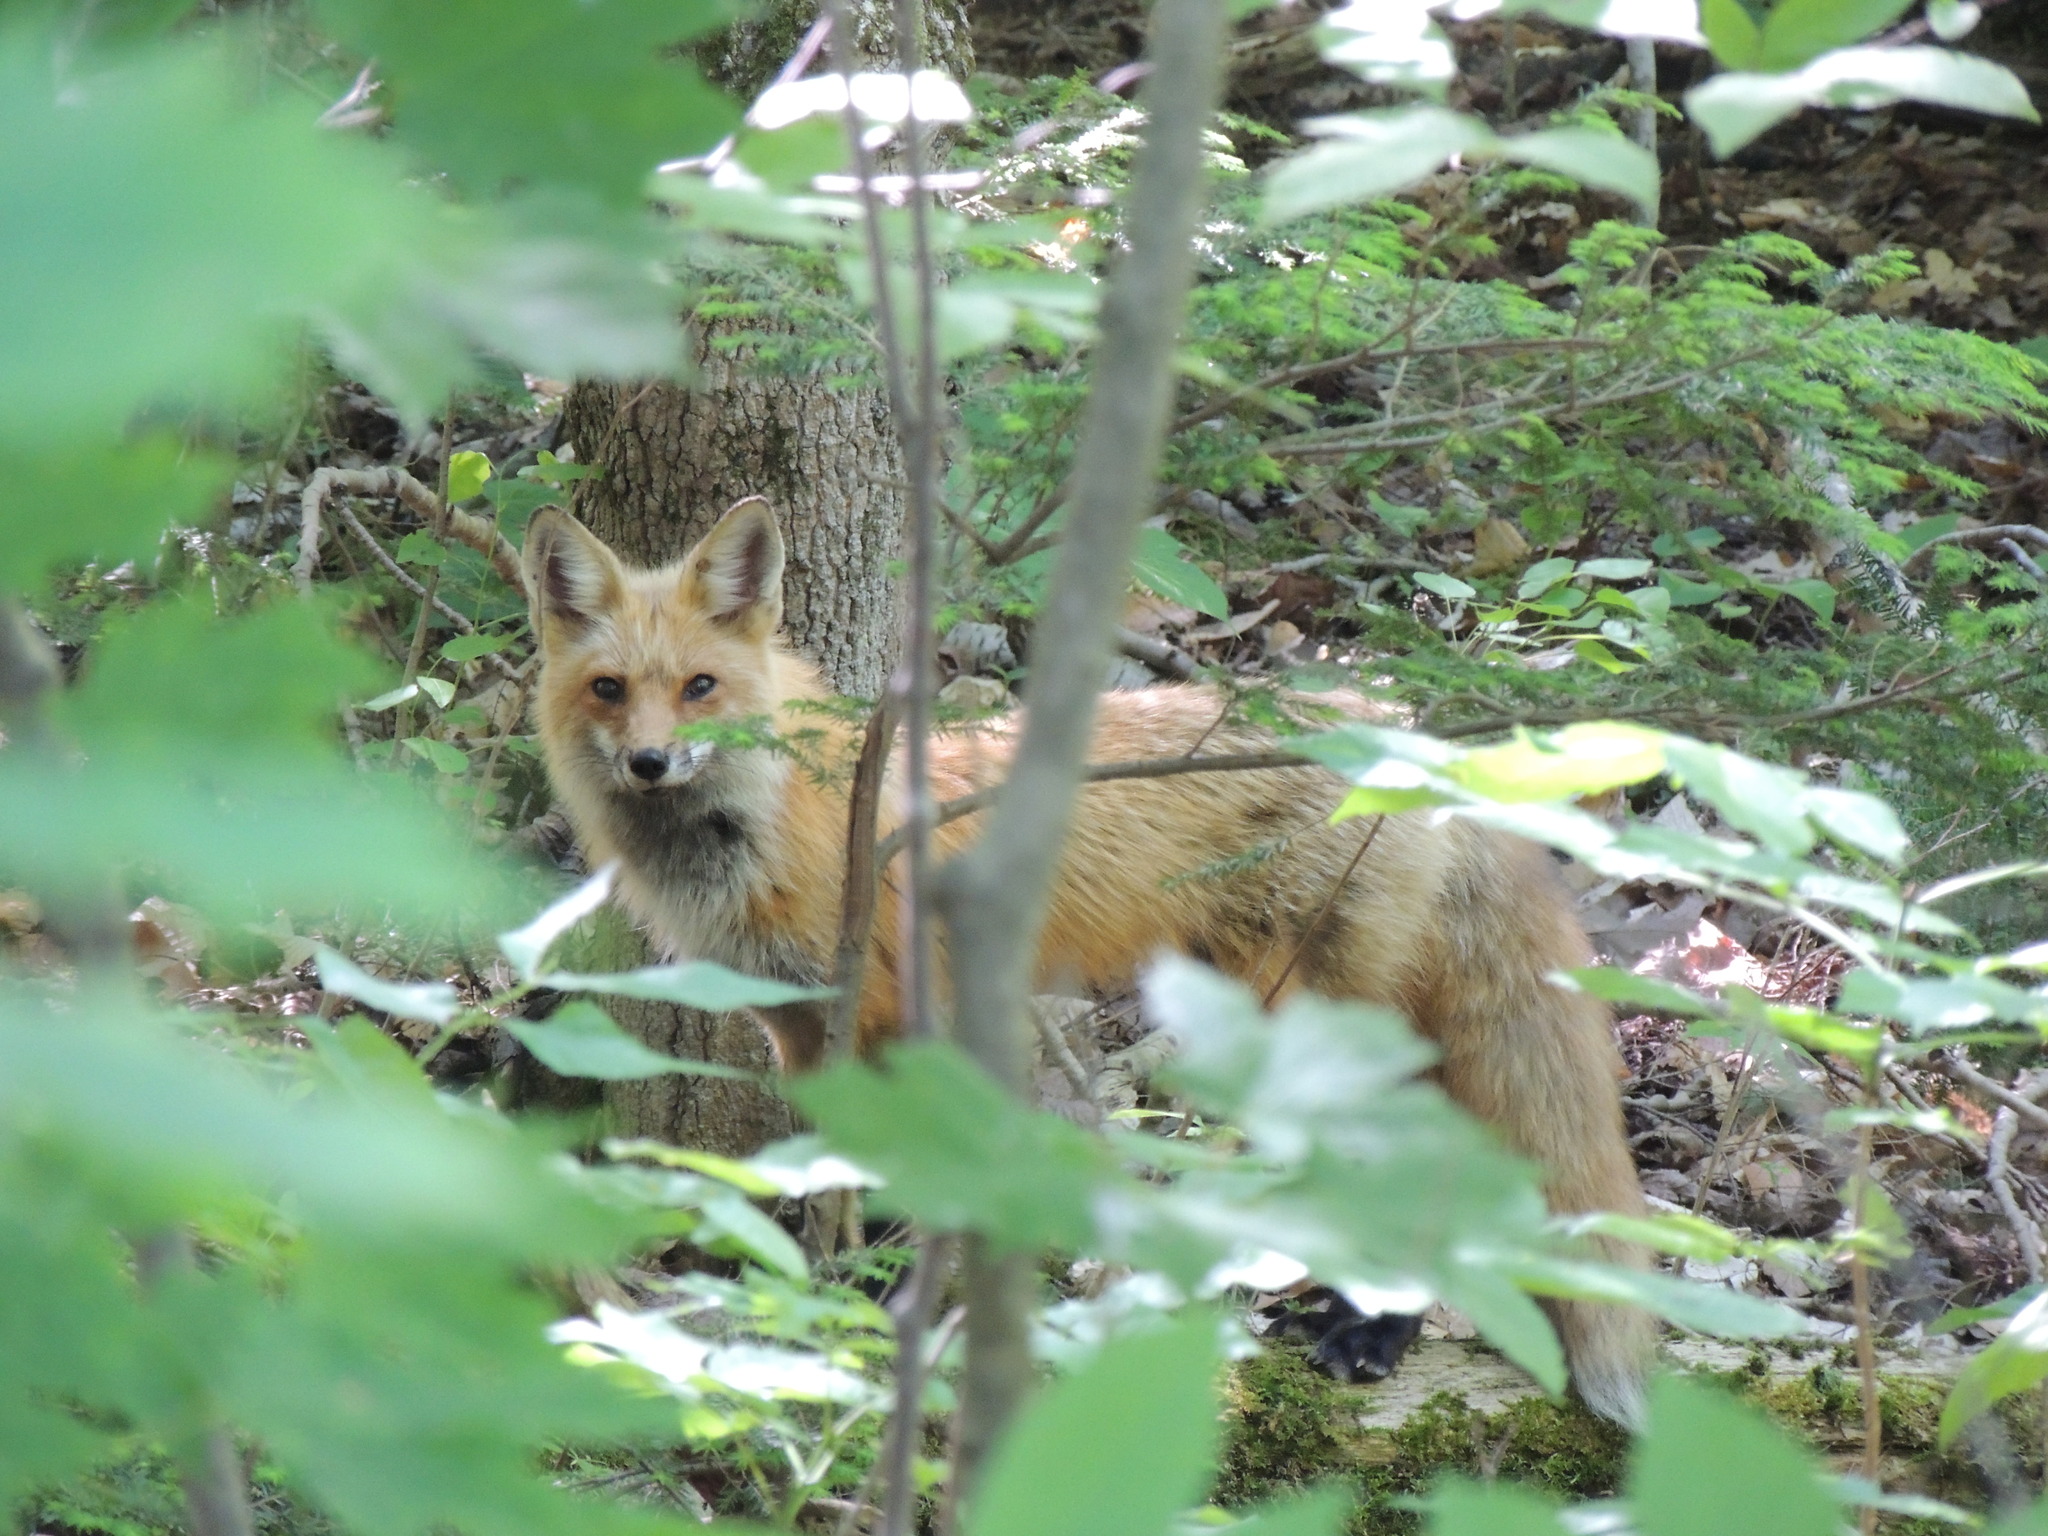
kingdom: Animalia
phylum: Chordata
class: Mammalia
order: Carnivora
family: Canidae
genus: Vulpes
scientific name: Vulpes vulpes
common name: Red fox
